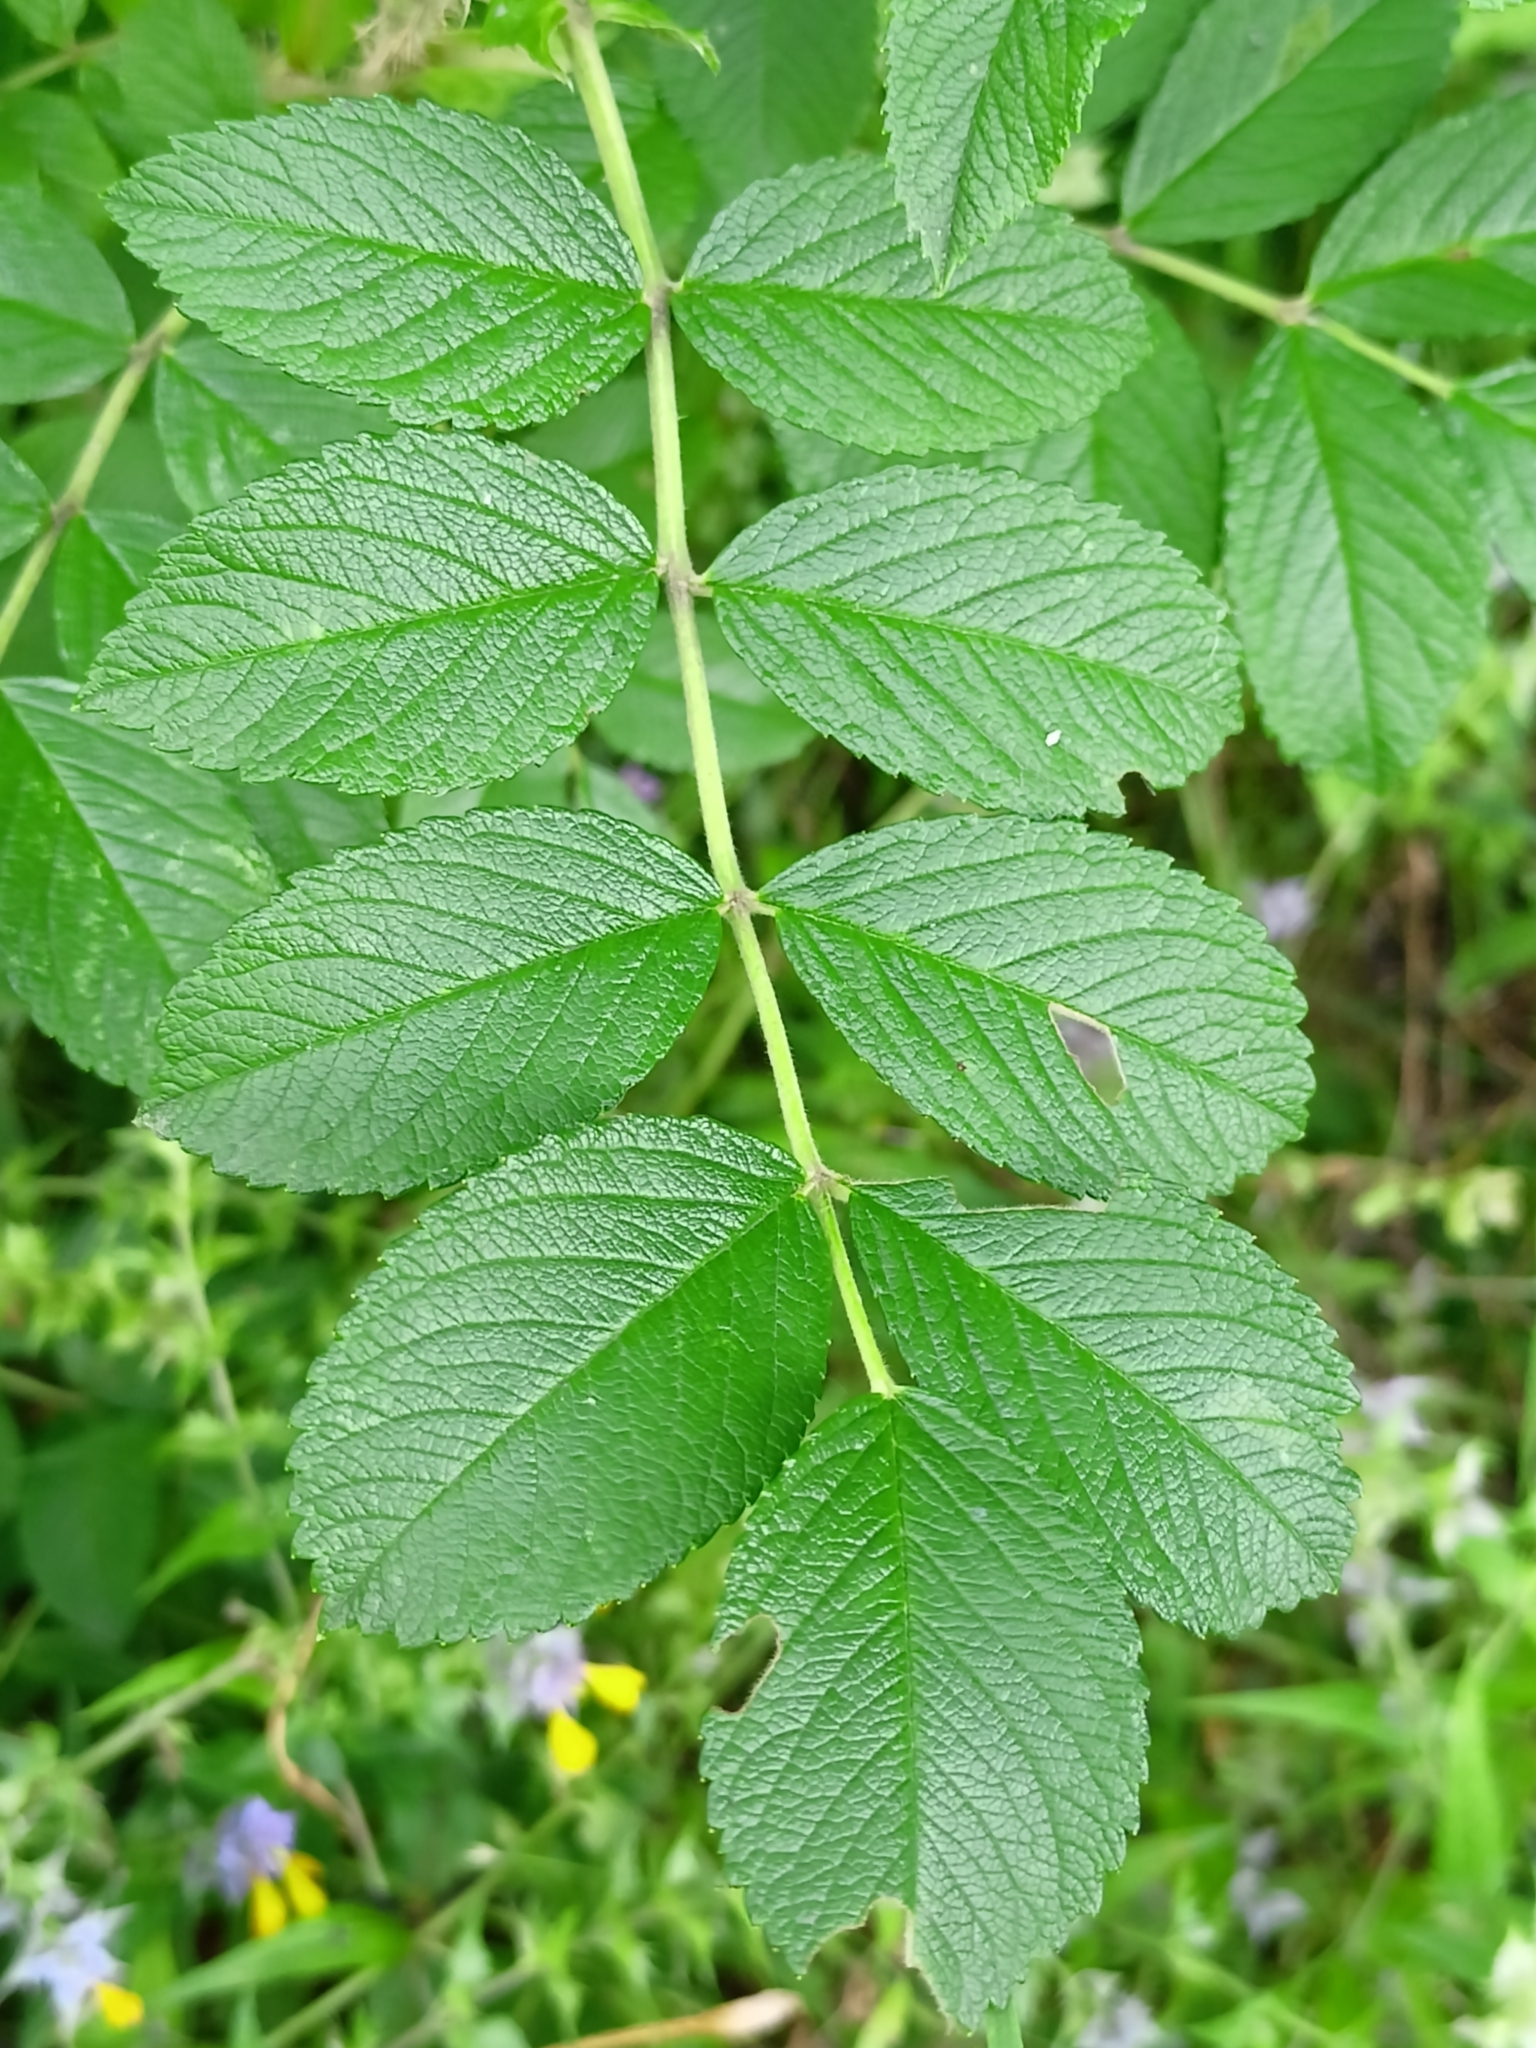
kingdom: Plantae
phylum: Tracheophyta
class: Magnoliopsida
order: Rosales
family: Rosaceae
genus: Rosa
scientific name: Rosa rugosa
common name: Japanese rose
